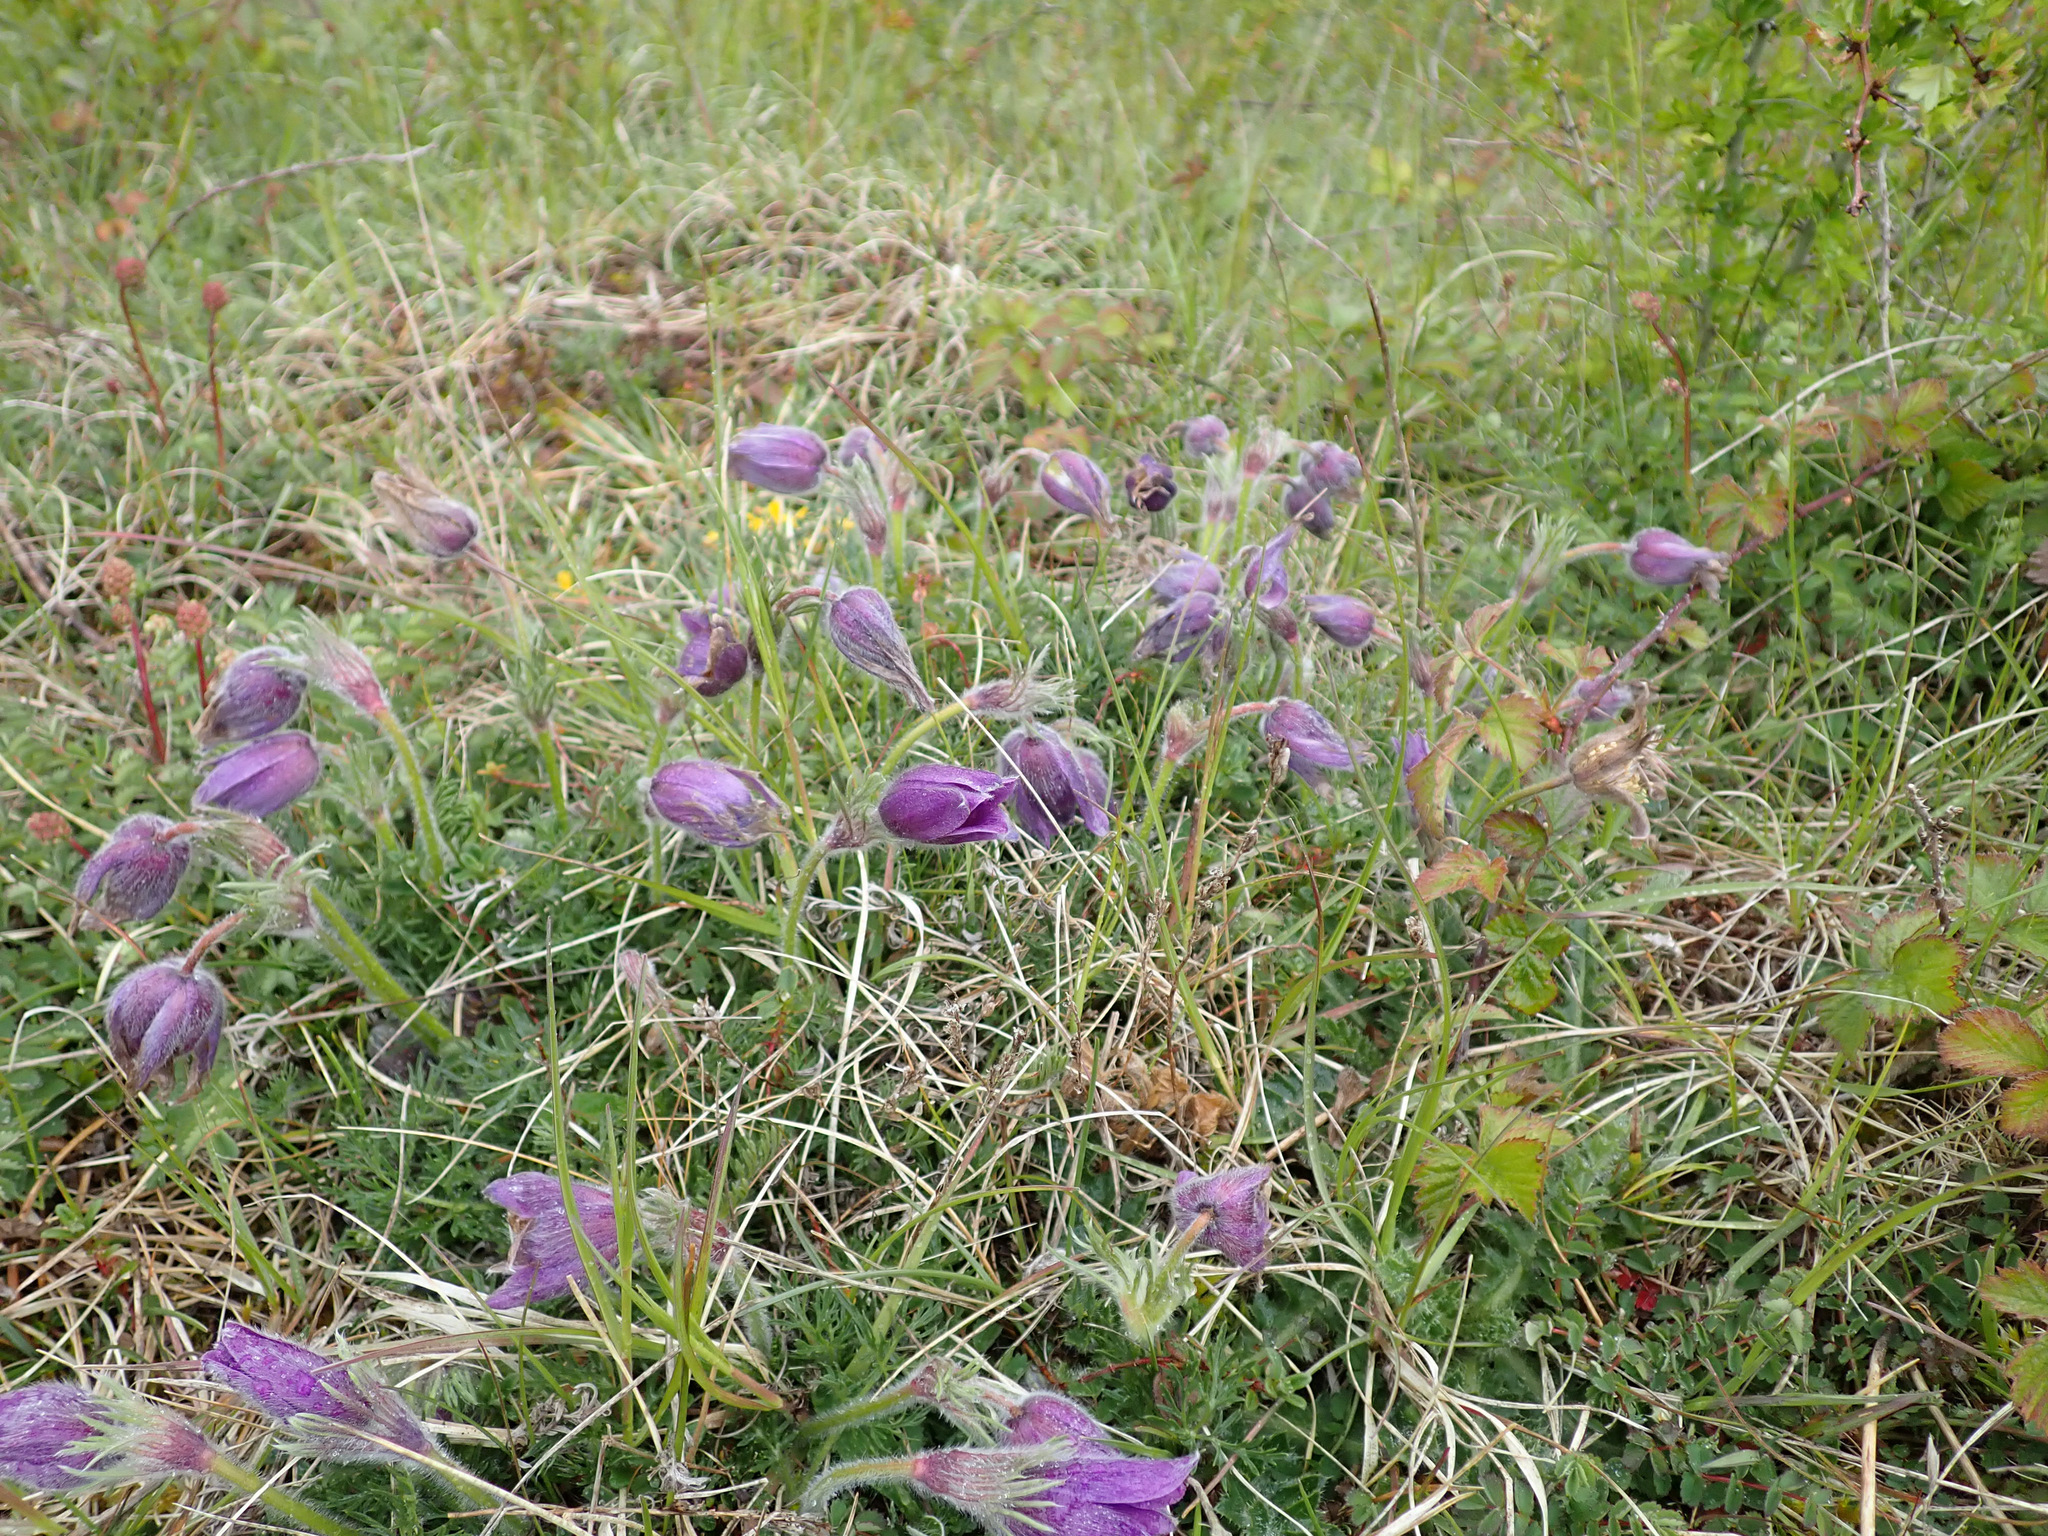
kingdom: Plantae
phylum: Tracheophyta
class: Magnoliopsida
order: Ranunculales
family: Ranunculaceae
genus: Pulsatilla
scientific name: Pulsatilla vulgaris
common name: Pasqueflower
